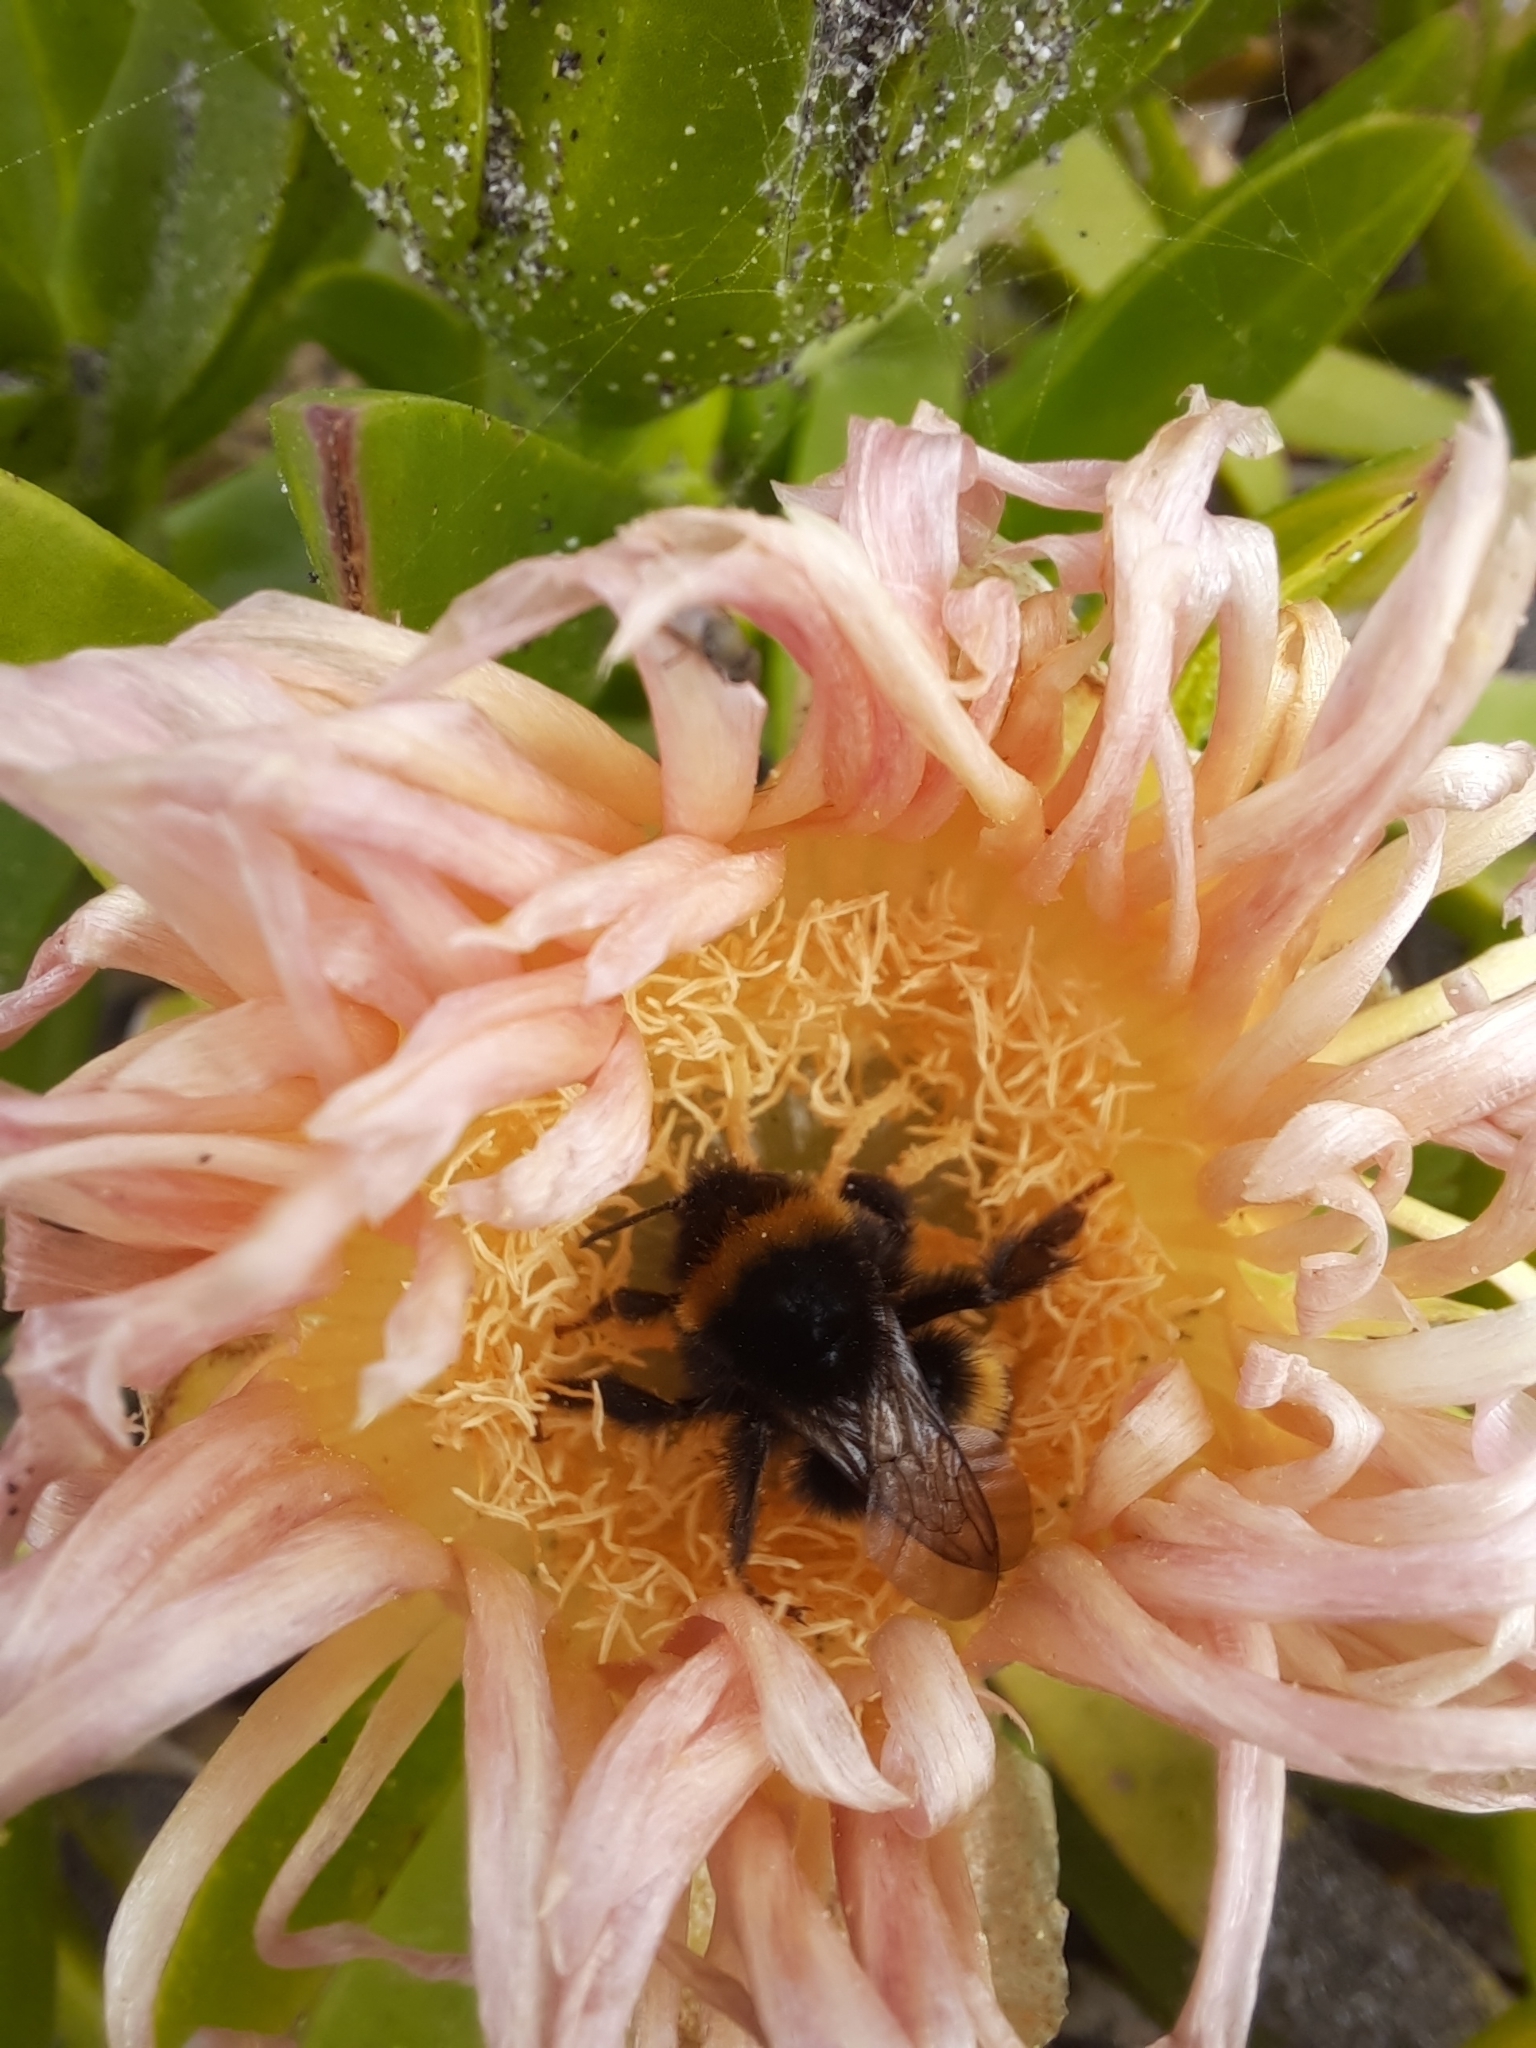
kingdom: Animalia
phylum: Arthropoda
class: Insecta
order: Hymenoptera
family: Apidae
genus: Bombus
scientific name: Bombus terrestris
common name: Buff-tailed bumblebee
